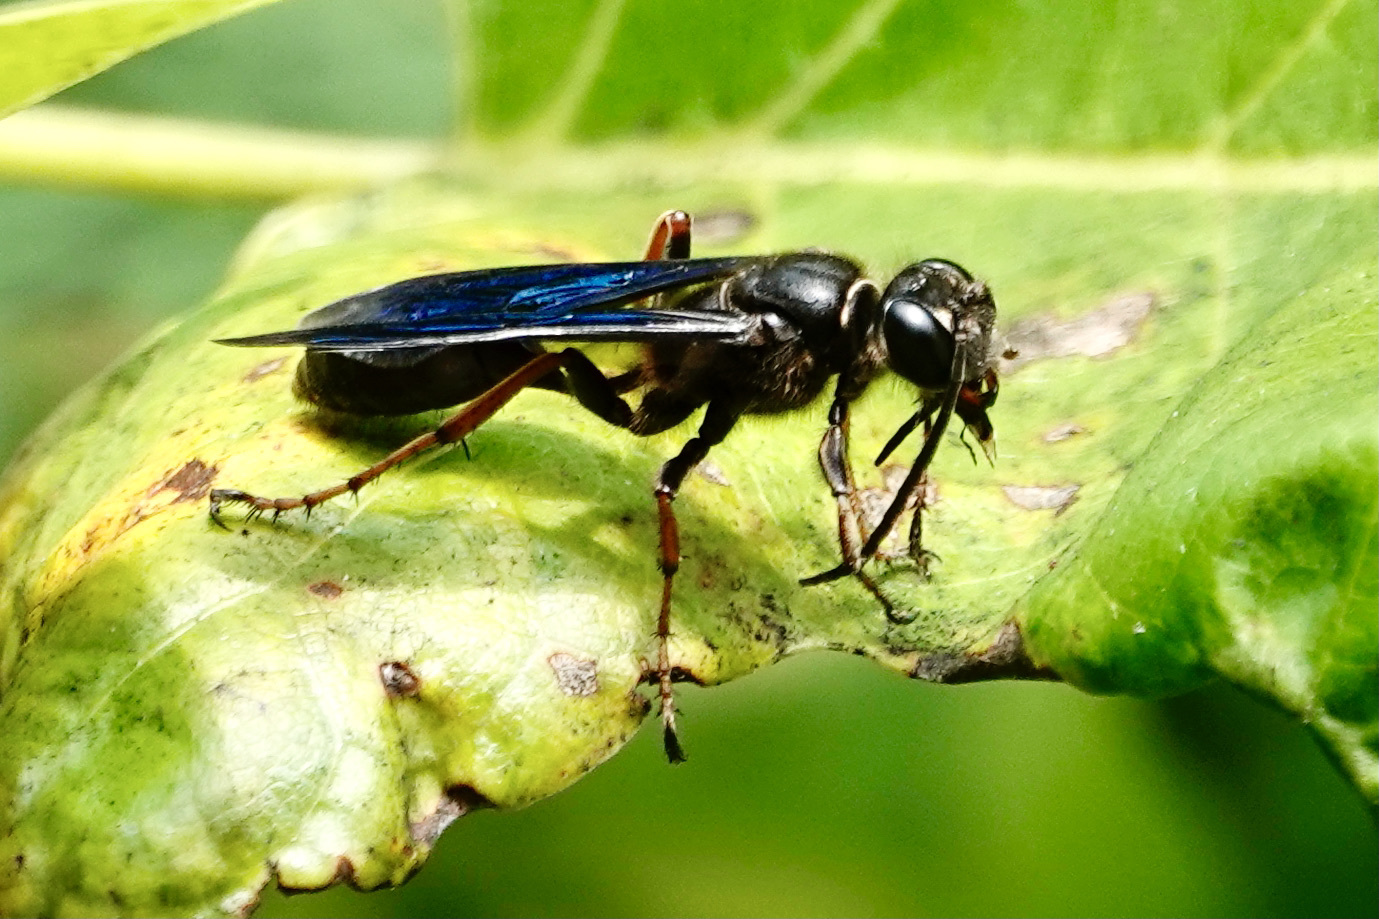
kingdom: Animalia
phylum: Arthropoda
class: Insecta
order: Hymenoptera
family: Sphecidae
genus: Isodontia
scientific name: Isodontia auripes
